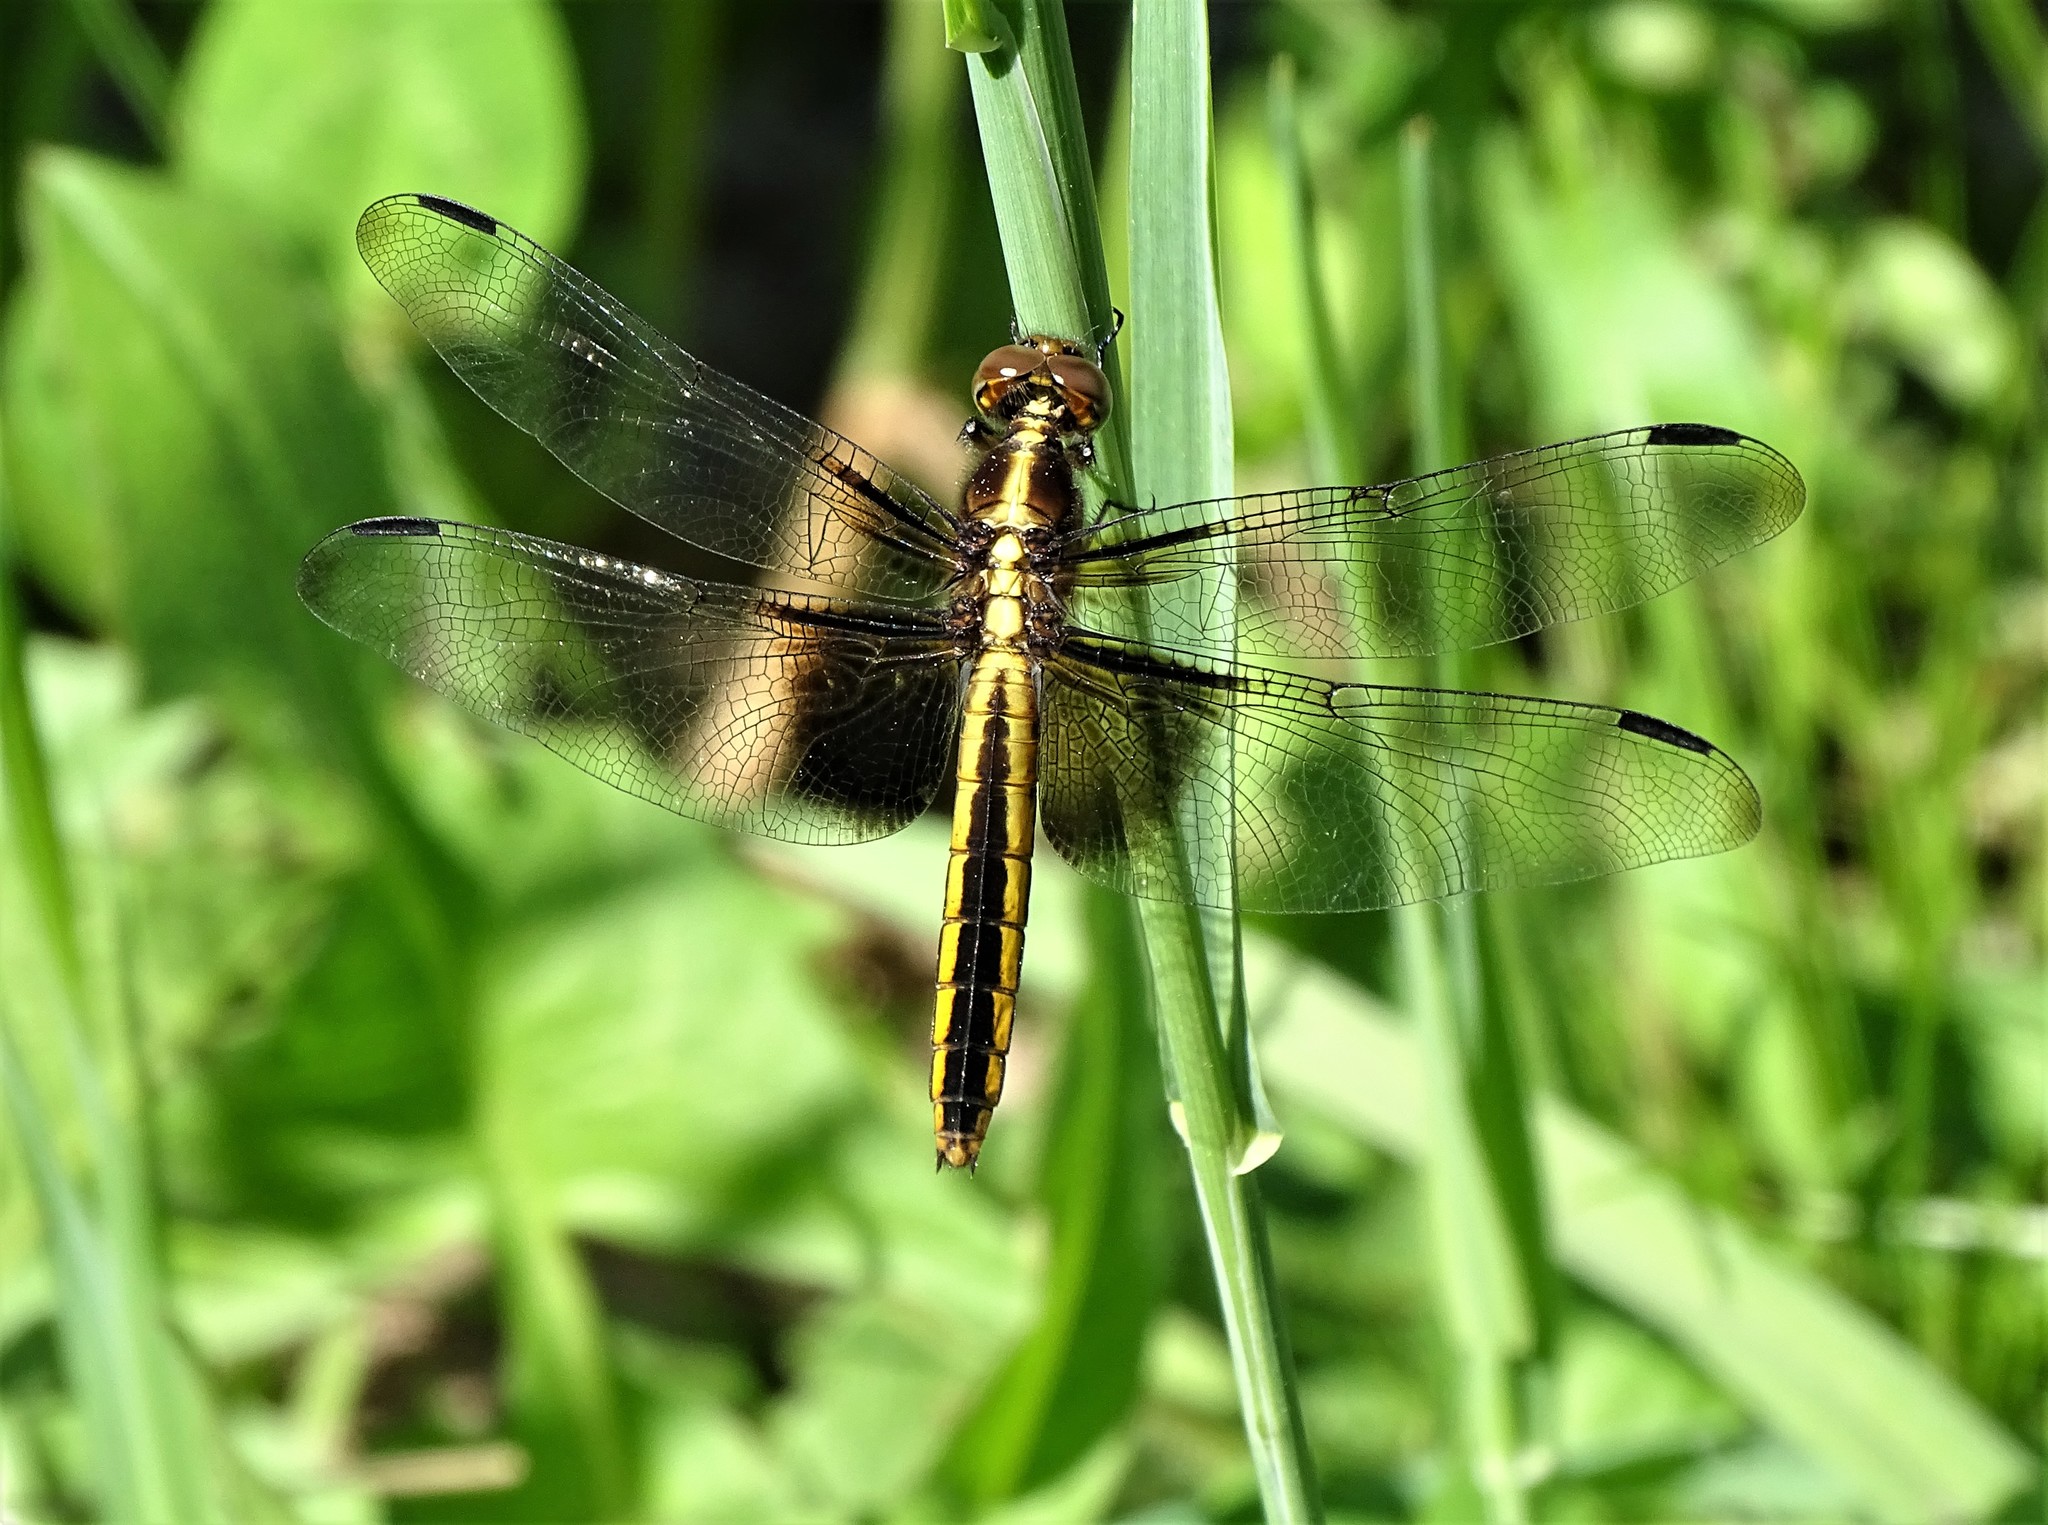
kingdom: Animalia
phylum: Arthropoda
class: Insecta
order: Odonata
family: Libellulidae
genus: Libellula
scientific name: Libellula luctuosa
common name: Widow skimmer
